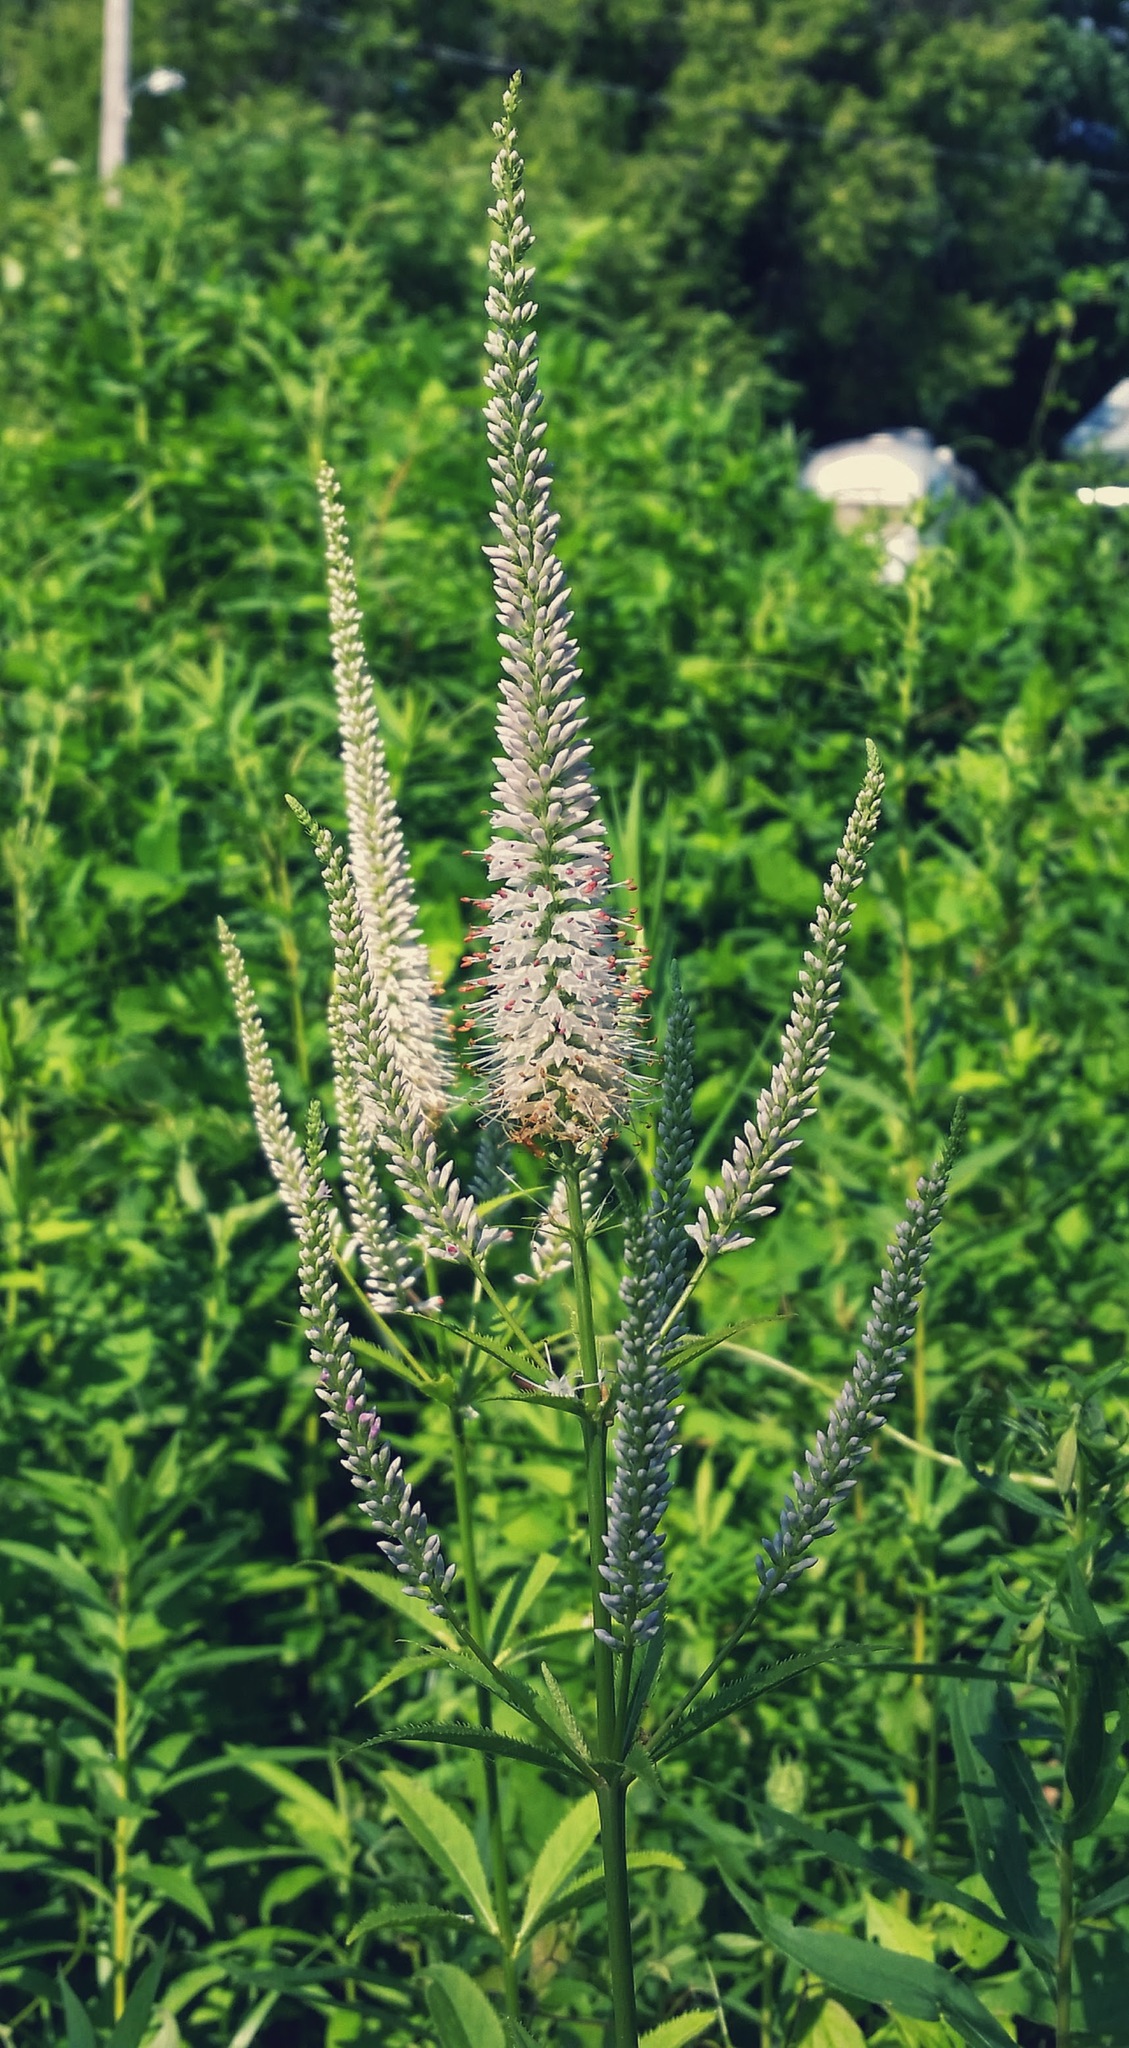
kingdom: Plantae
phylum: Tracheophyta
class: Magnoliopsida
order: Lamiales
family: Plantaginaceae
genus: Veronicastrum
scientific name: Veronicastrum virginicum
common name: Blackroot
